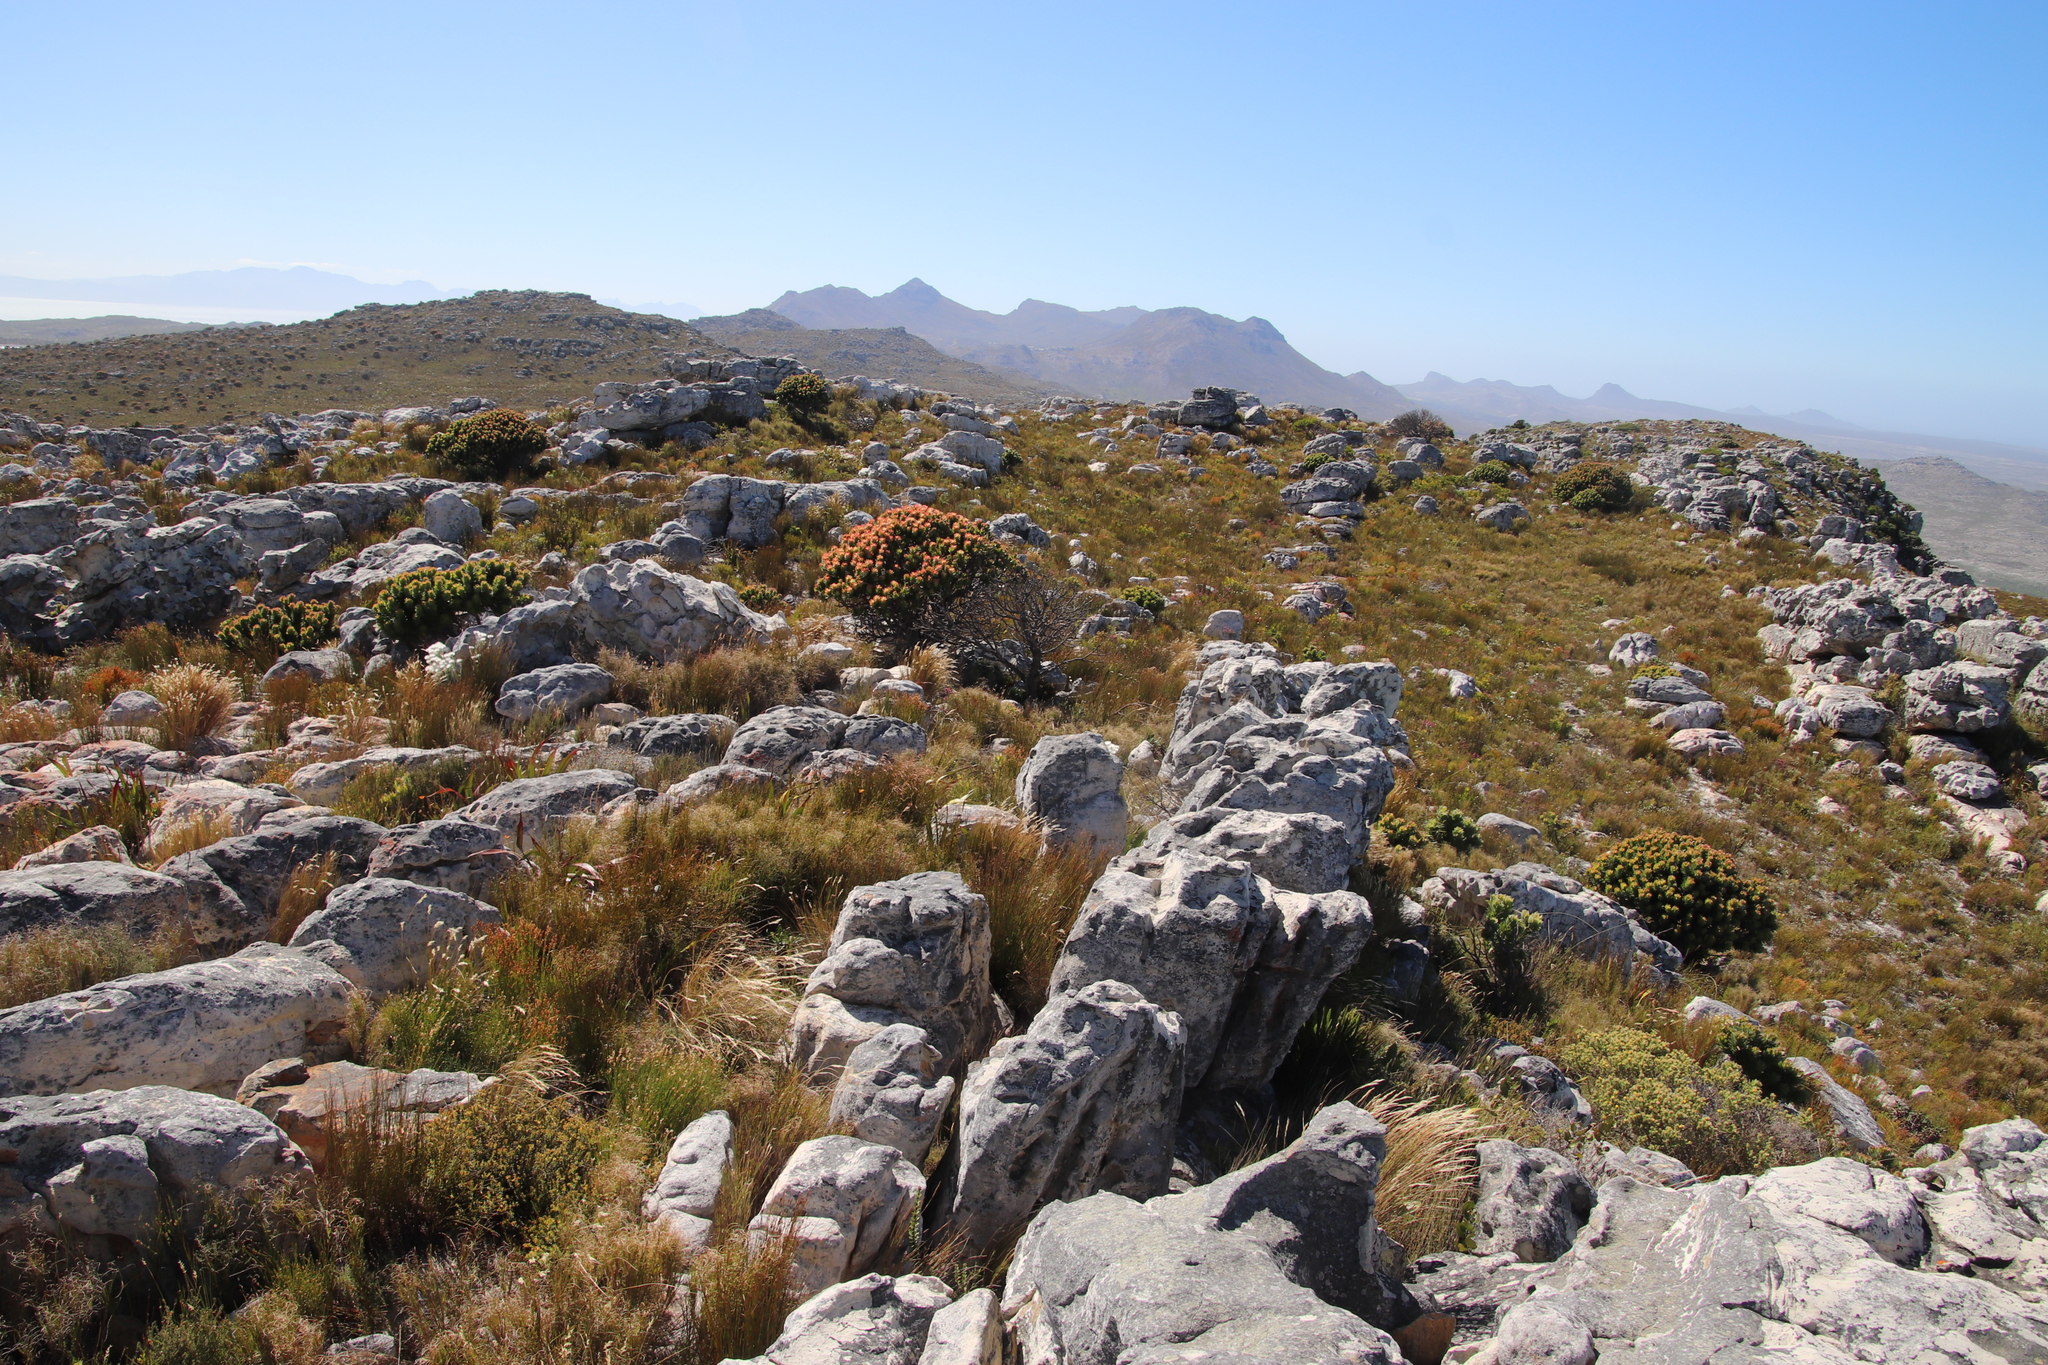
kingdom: Plantae
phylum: Tracheophyta
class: Magnoliopsida
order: Proteales
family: Proteaceae
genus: Mimetes
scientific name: Mimetes fimbriifolius
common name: Fringed bottlebrush
